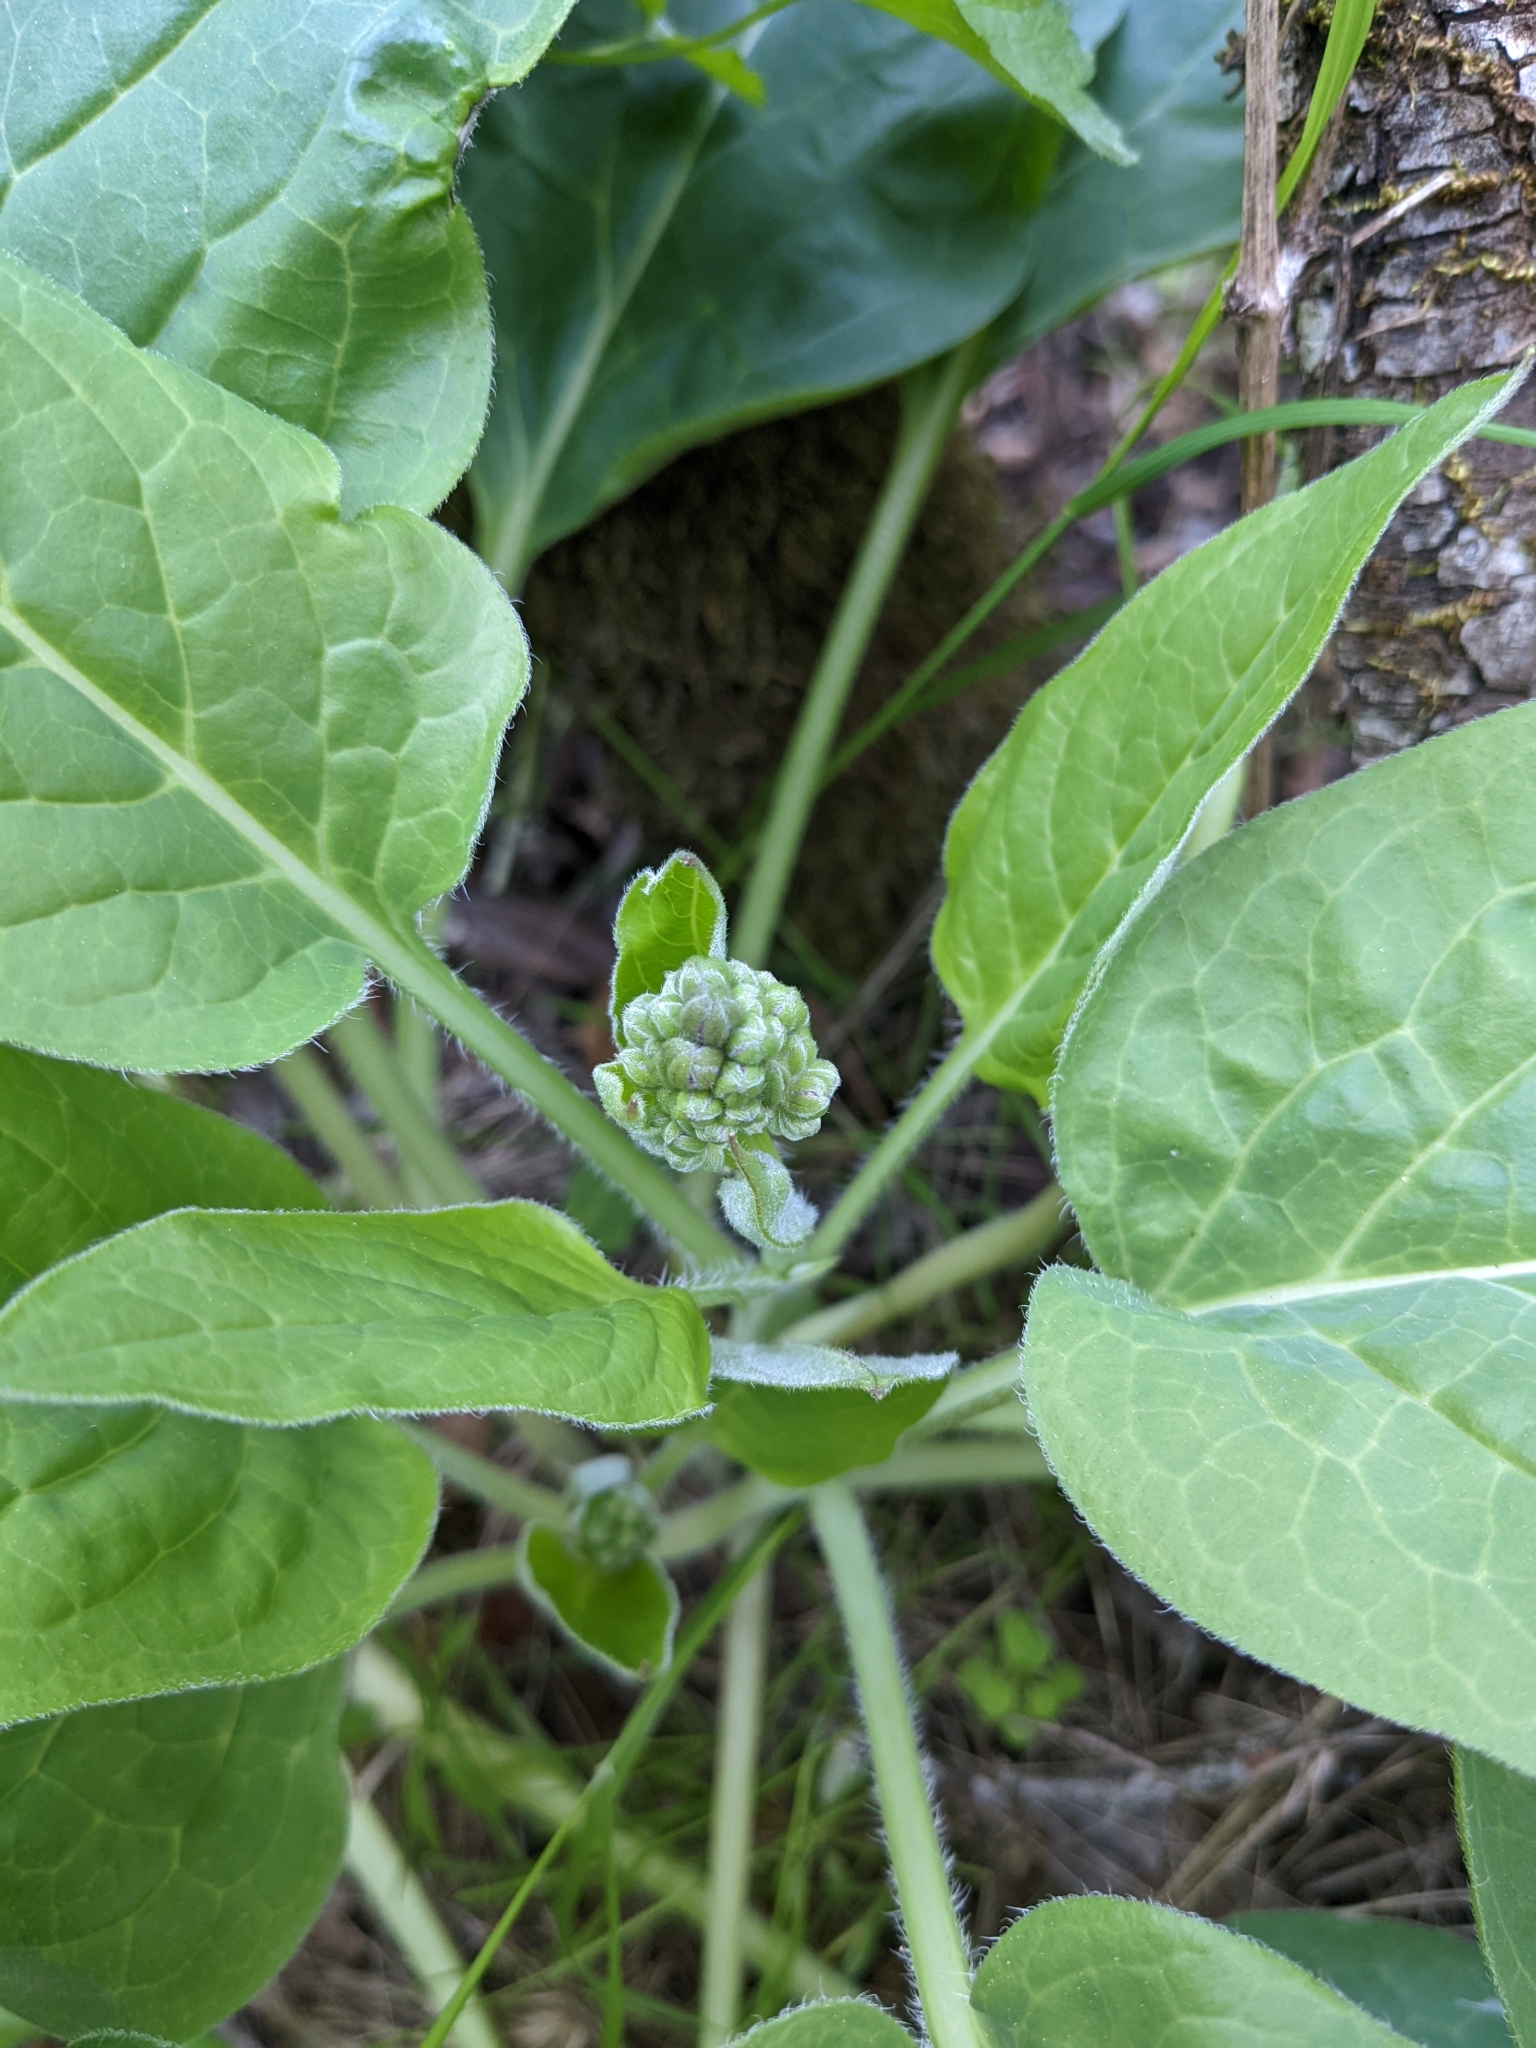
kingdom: Plantae
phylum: Tracheophyta
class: Magnoliopsida
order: Boraginales
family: Boraginaceae
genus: Adelinia
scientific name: Adelinia grande
